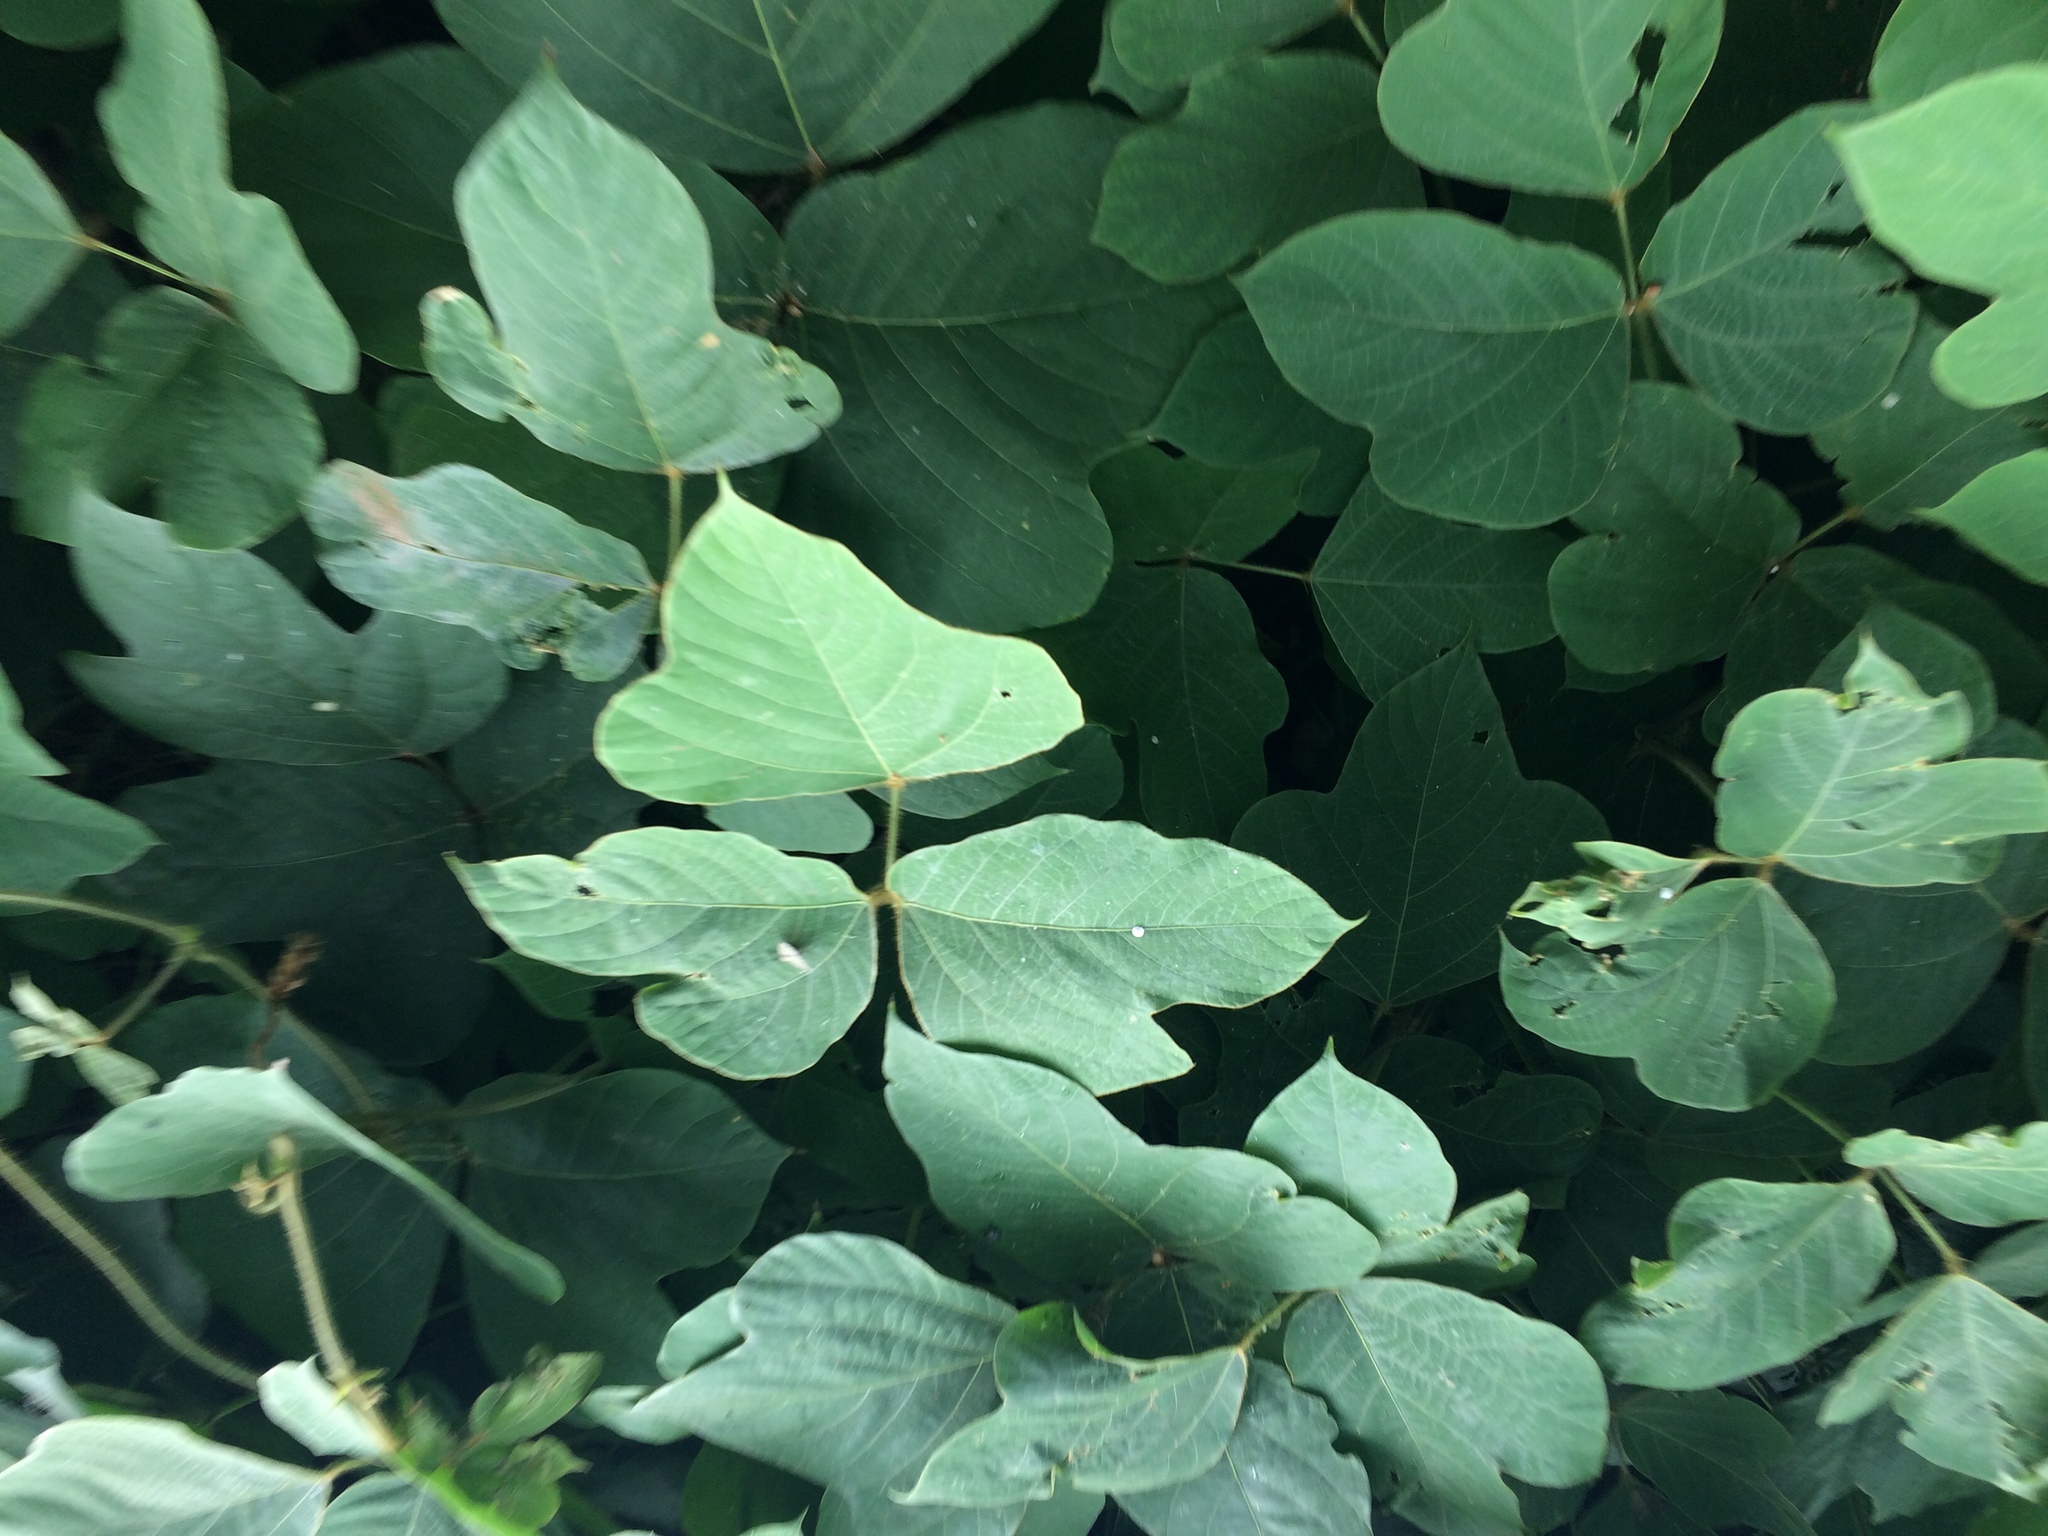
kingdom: Plantae
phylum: Tracheophyta
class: Magnoliopsida
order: Fabales
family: Fabaceae
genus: Pueraria
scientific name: Pueraria montana
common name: Kudzu
